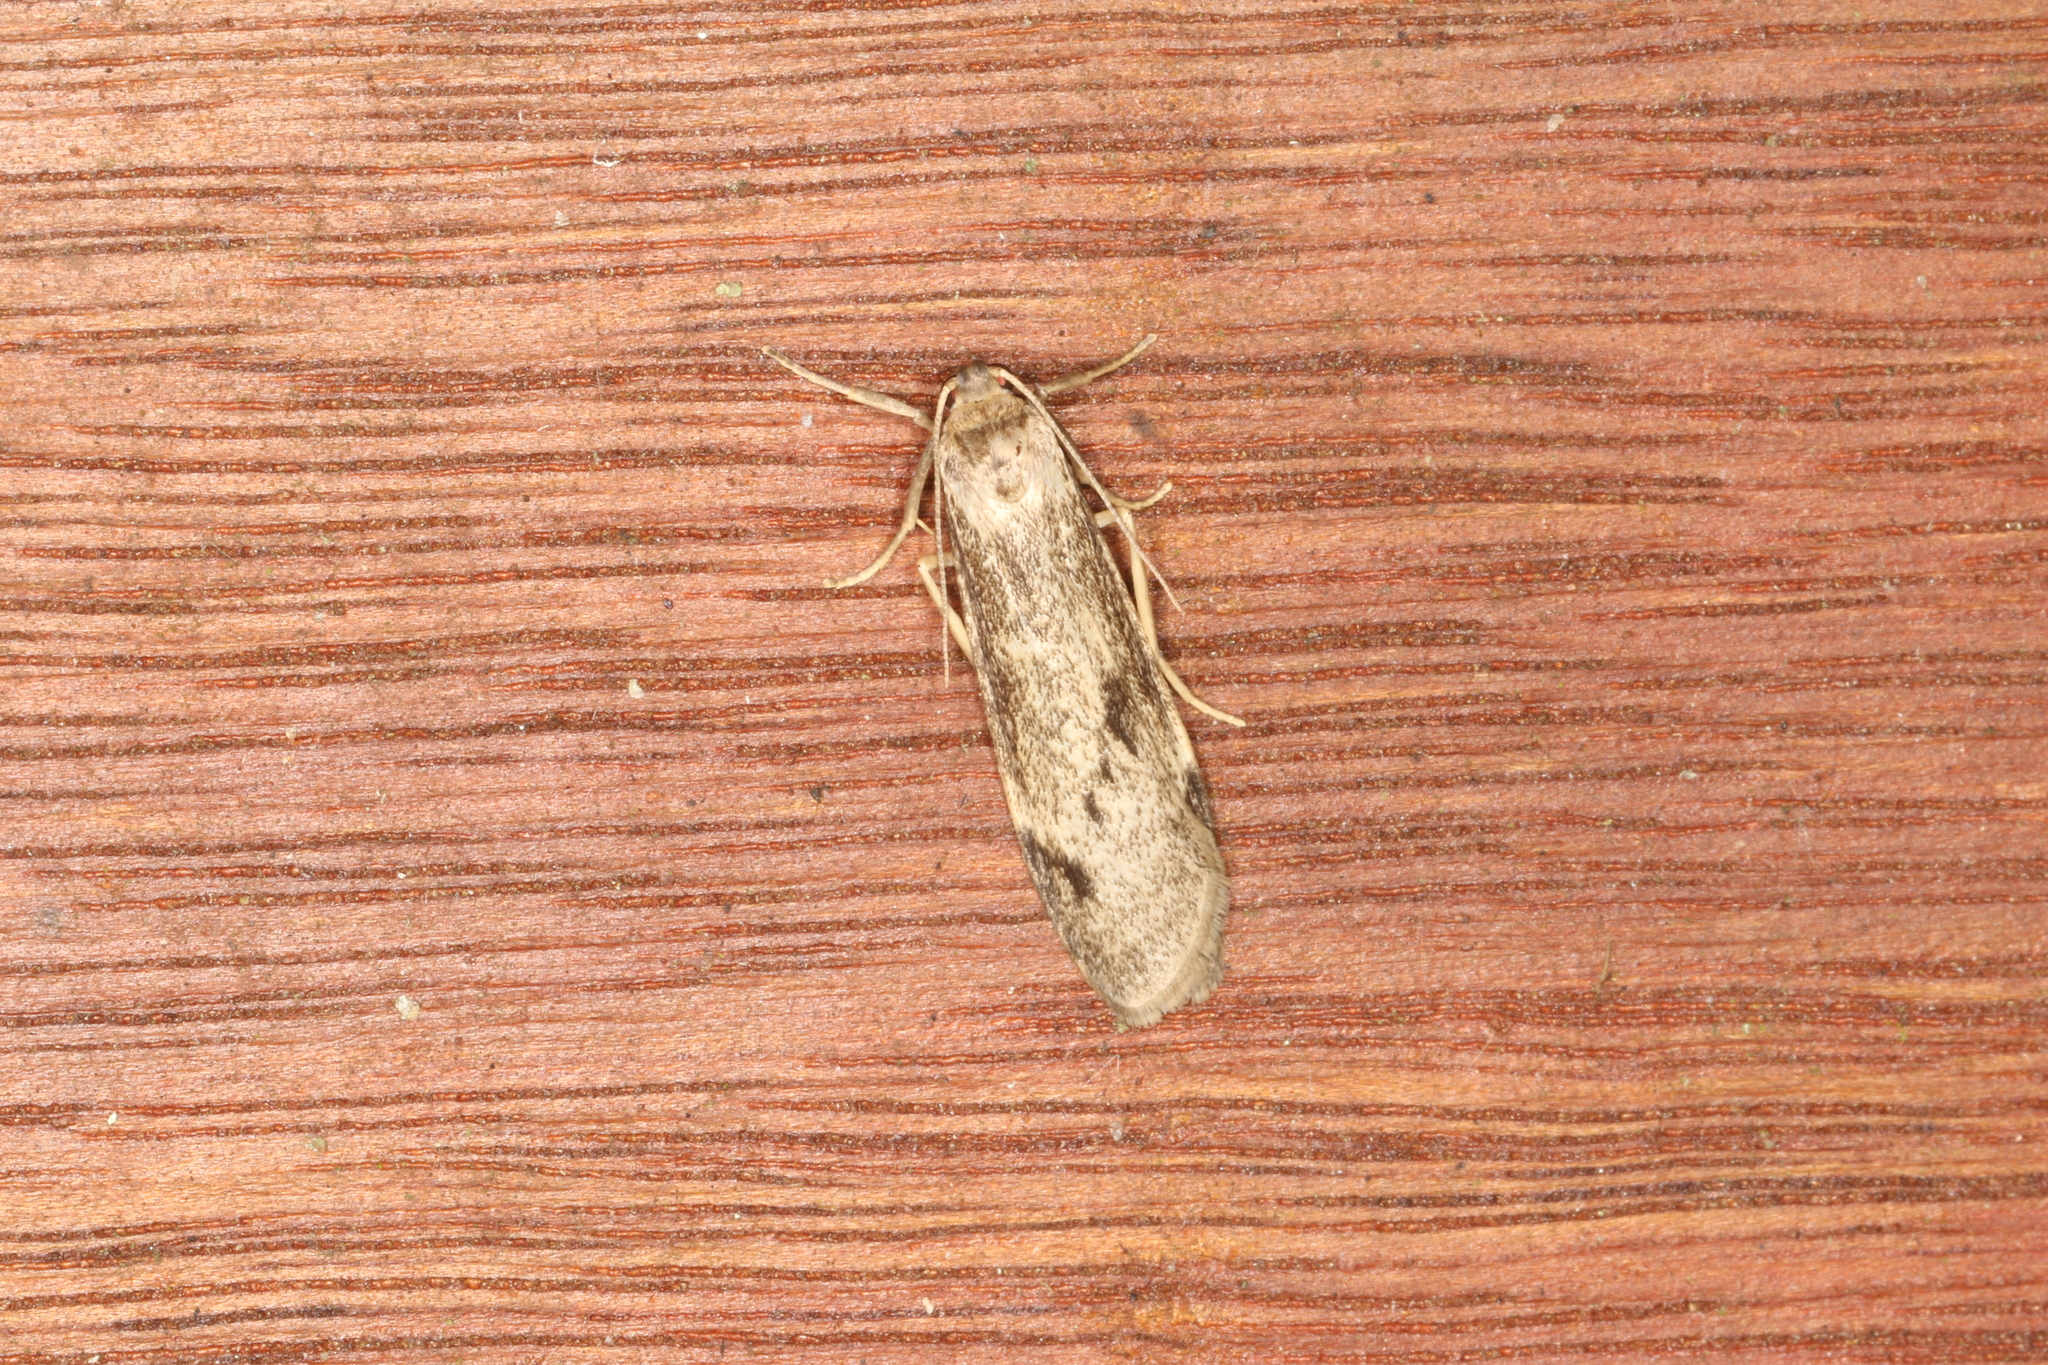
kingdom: Animalia
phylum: Arthropoda
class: Insecta
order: Lepidoptera
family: Erebidae
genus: Graphosia
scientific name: Graphosia stenopepla
